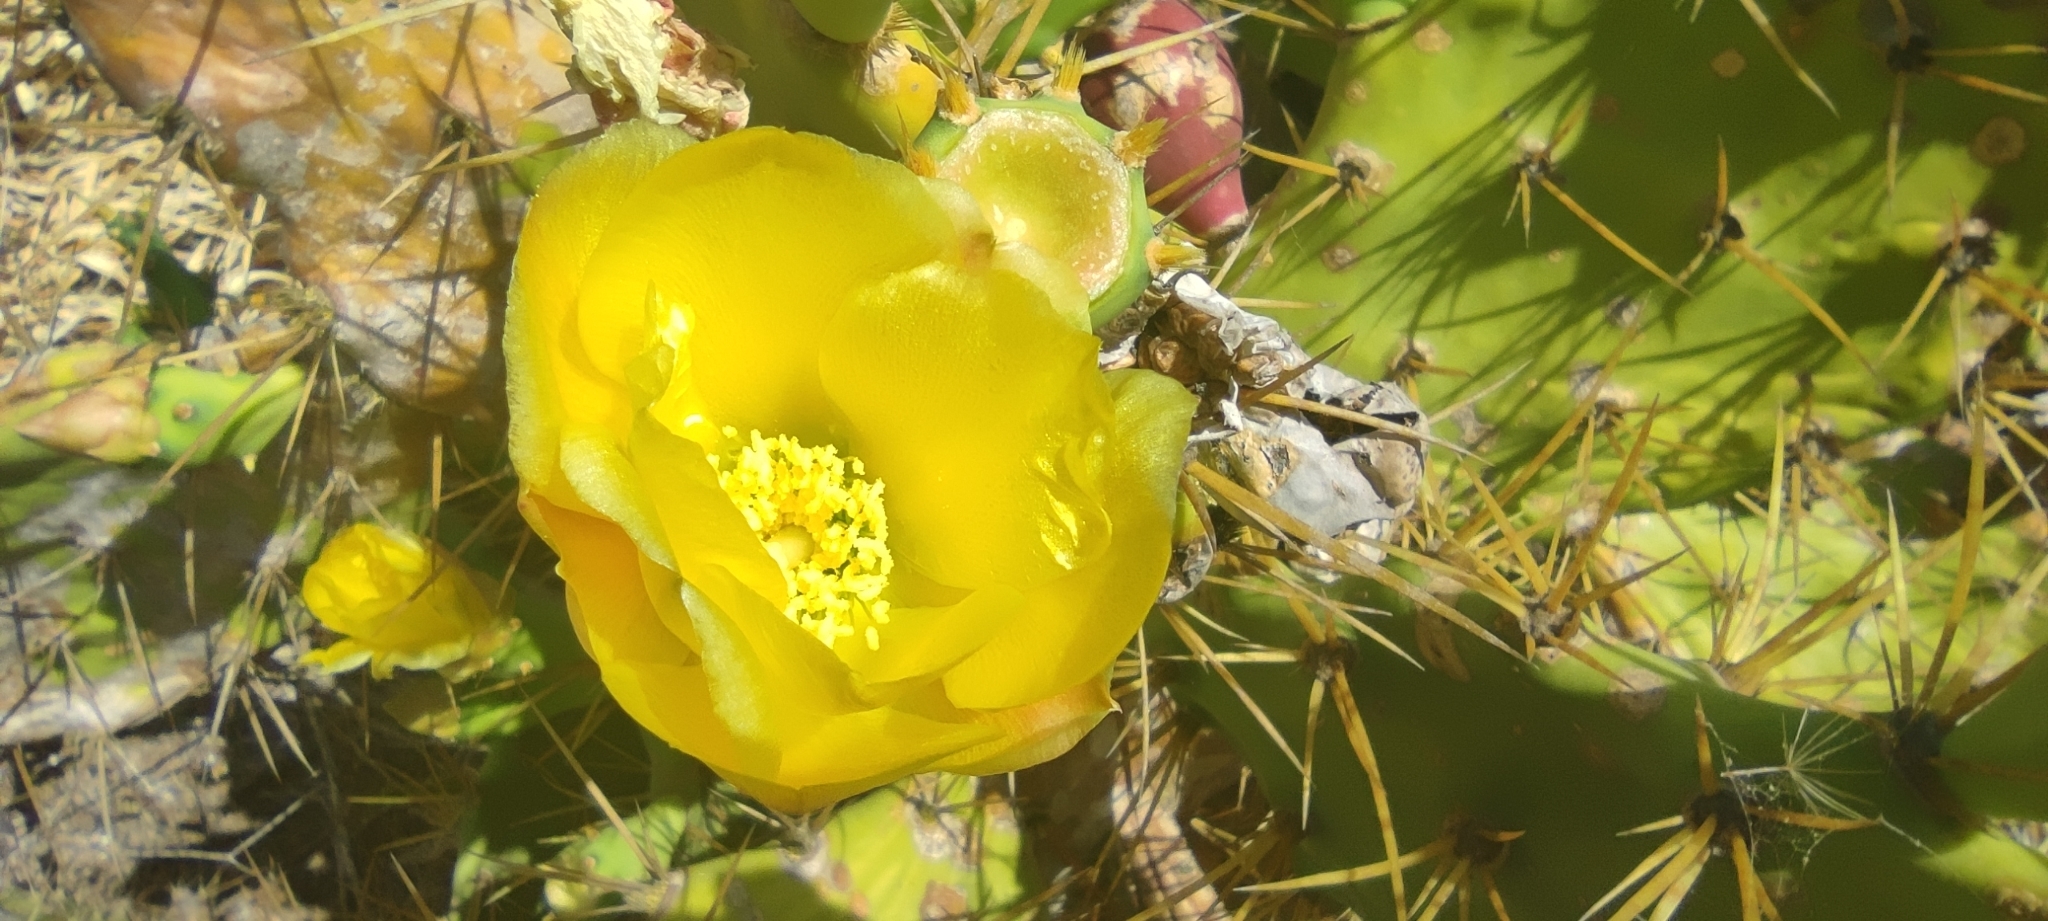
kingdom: Plantae
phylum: Tracheophyta
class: Magnoliopsida
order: Caryophyllales
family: Cactaceae
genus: Opuntia
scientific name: Opuntia stricta
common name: Erect pricklypear
